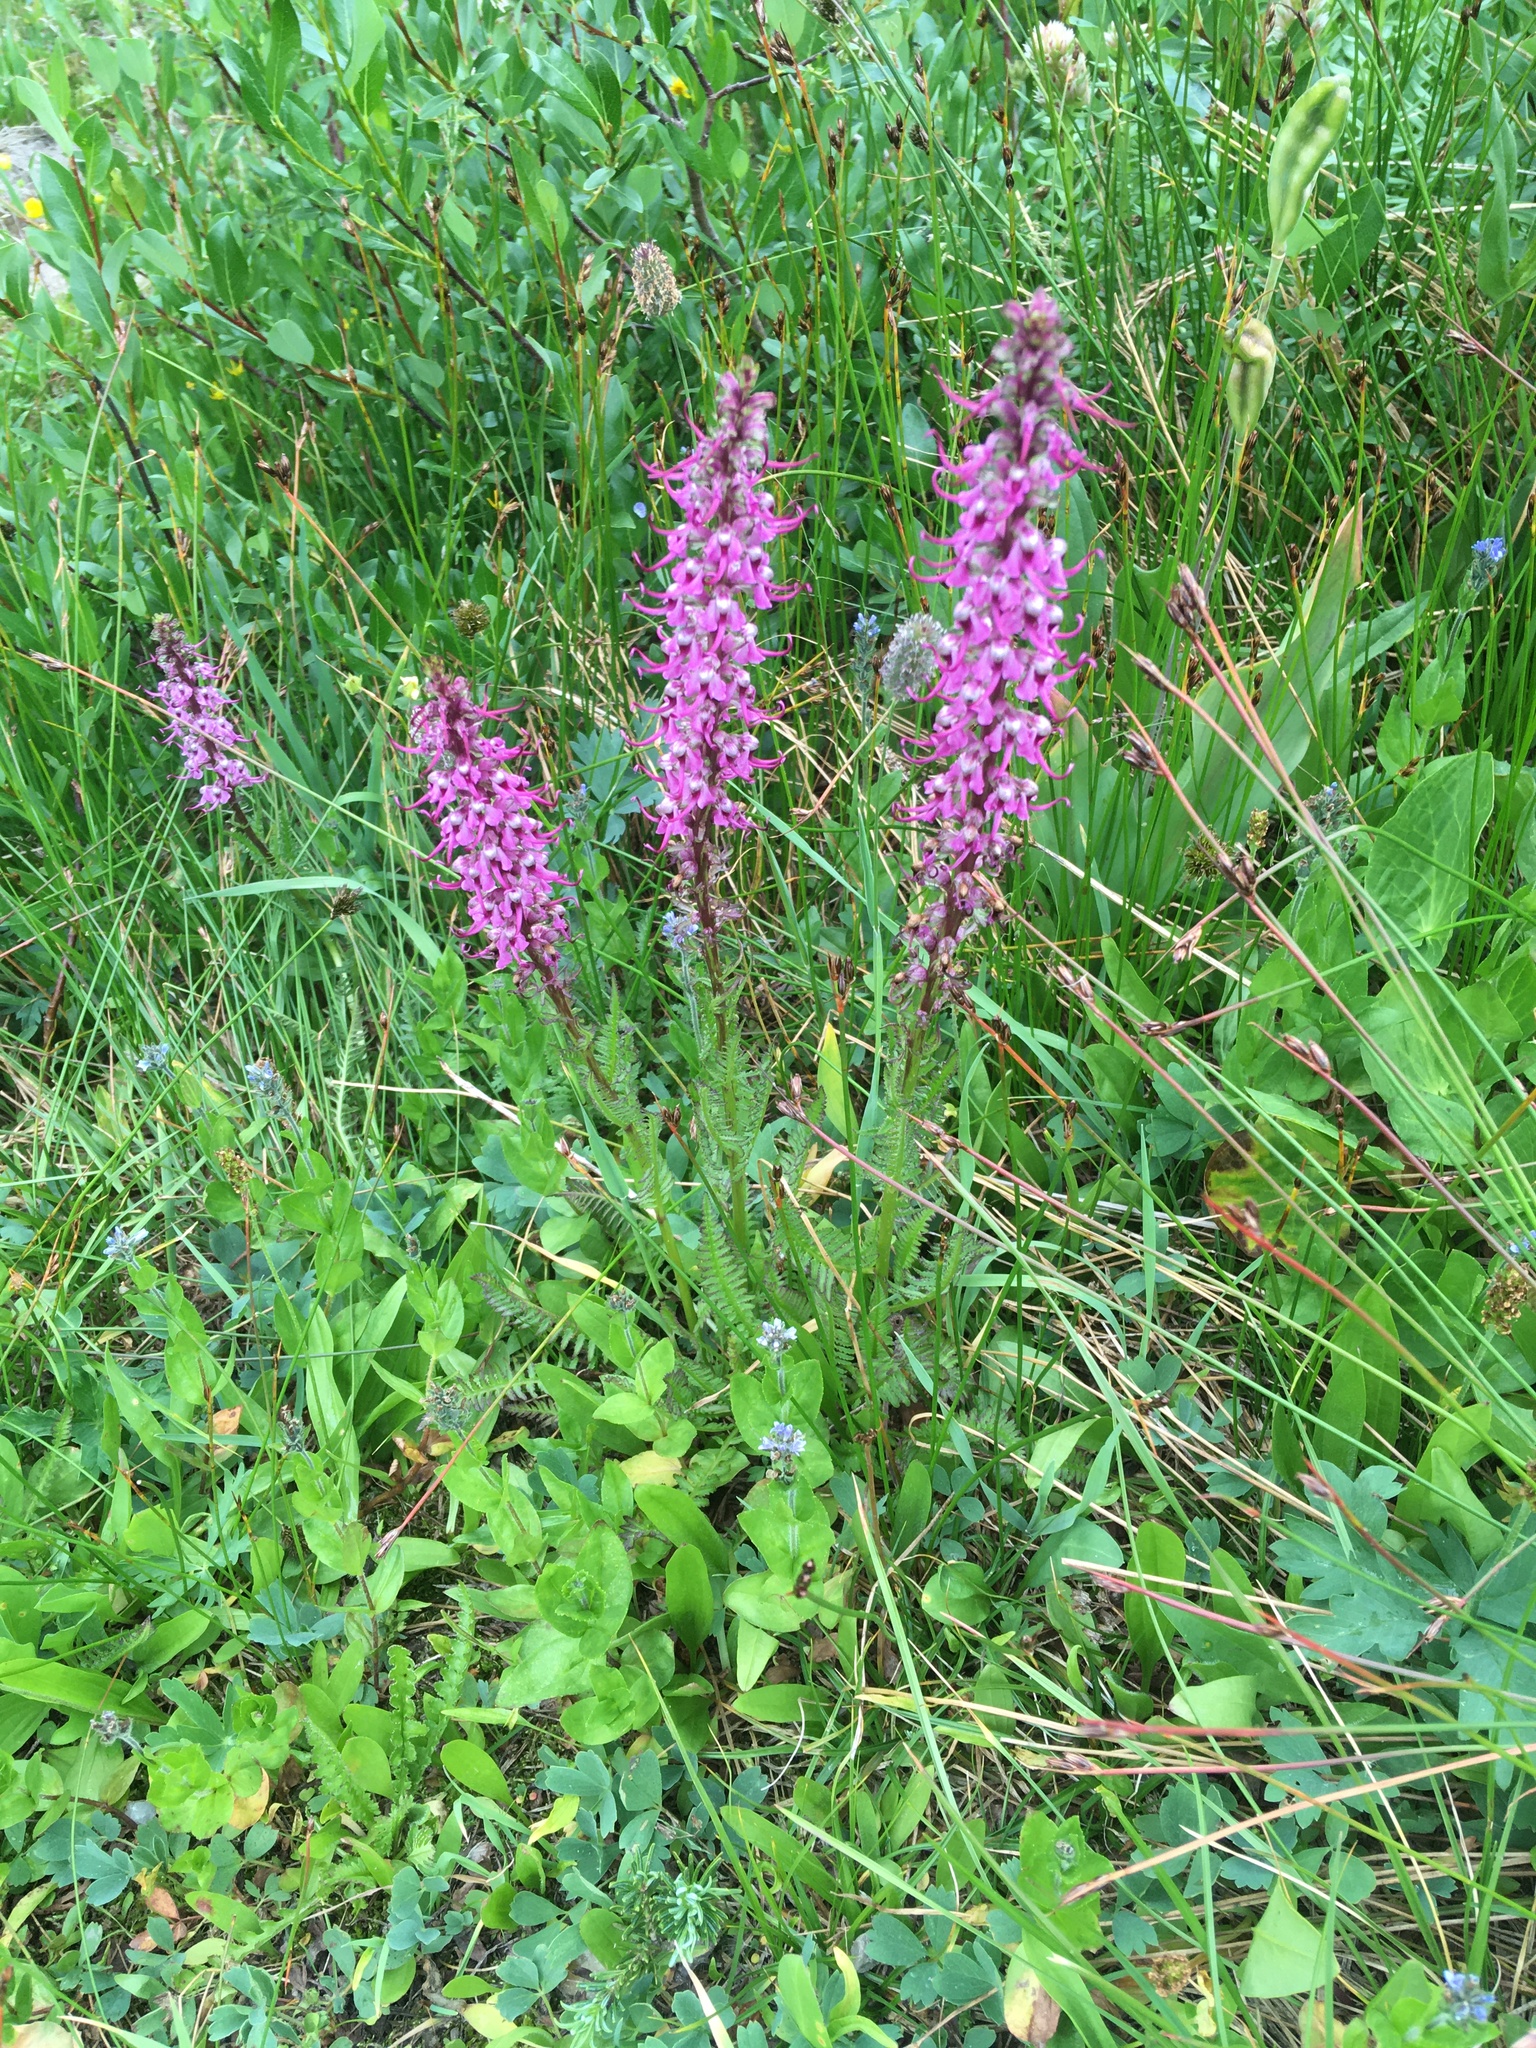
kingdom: Plantae
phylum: Tracheophyta
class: Magnoliopsida
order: Lamiales
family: Orobanchaceae
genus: Pedicularis
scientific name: Pedicularis groenlandica
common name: Elephant's-head
